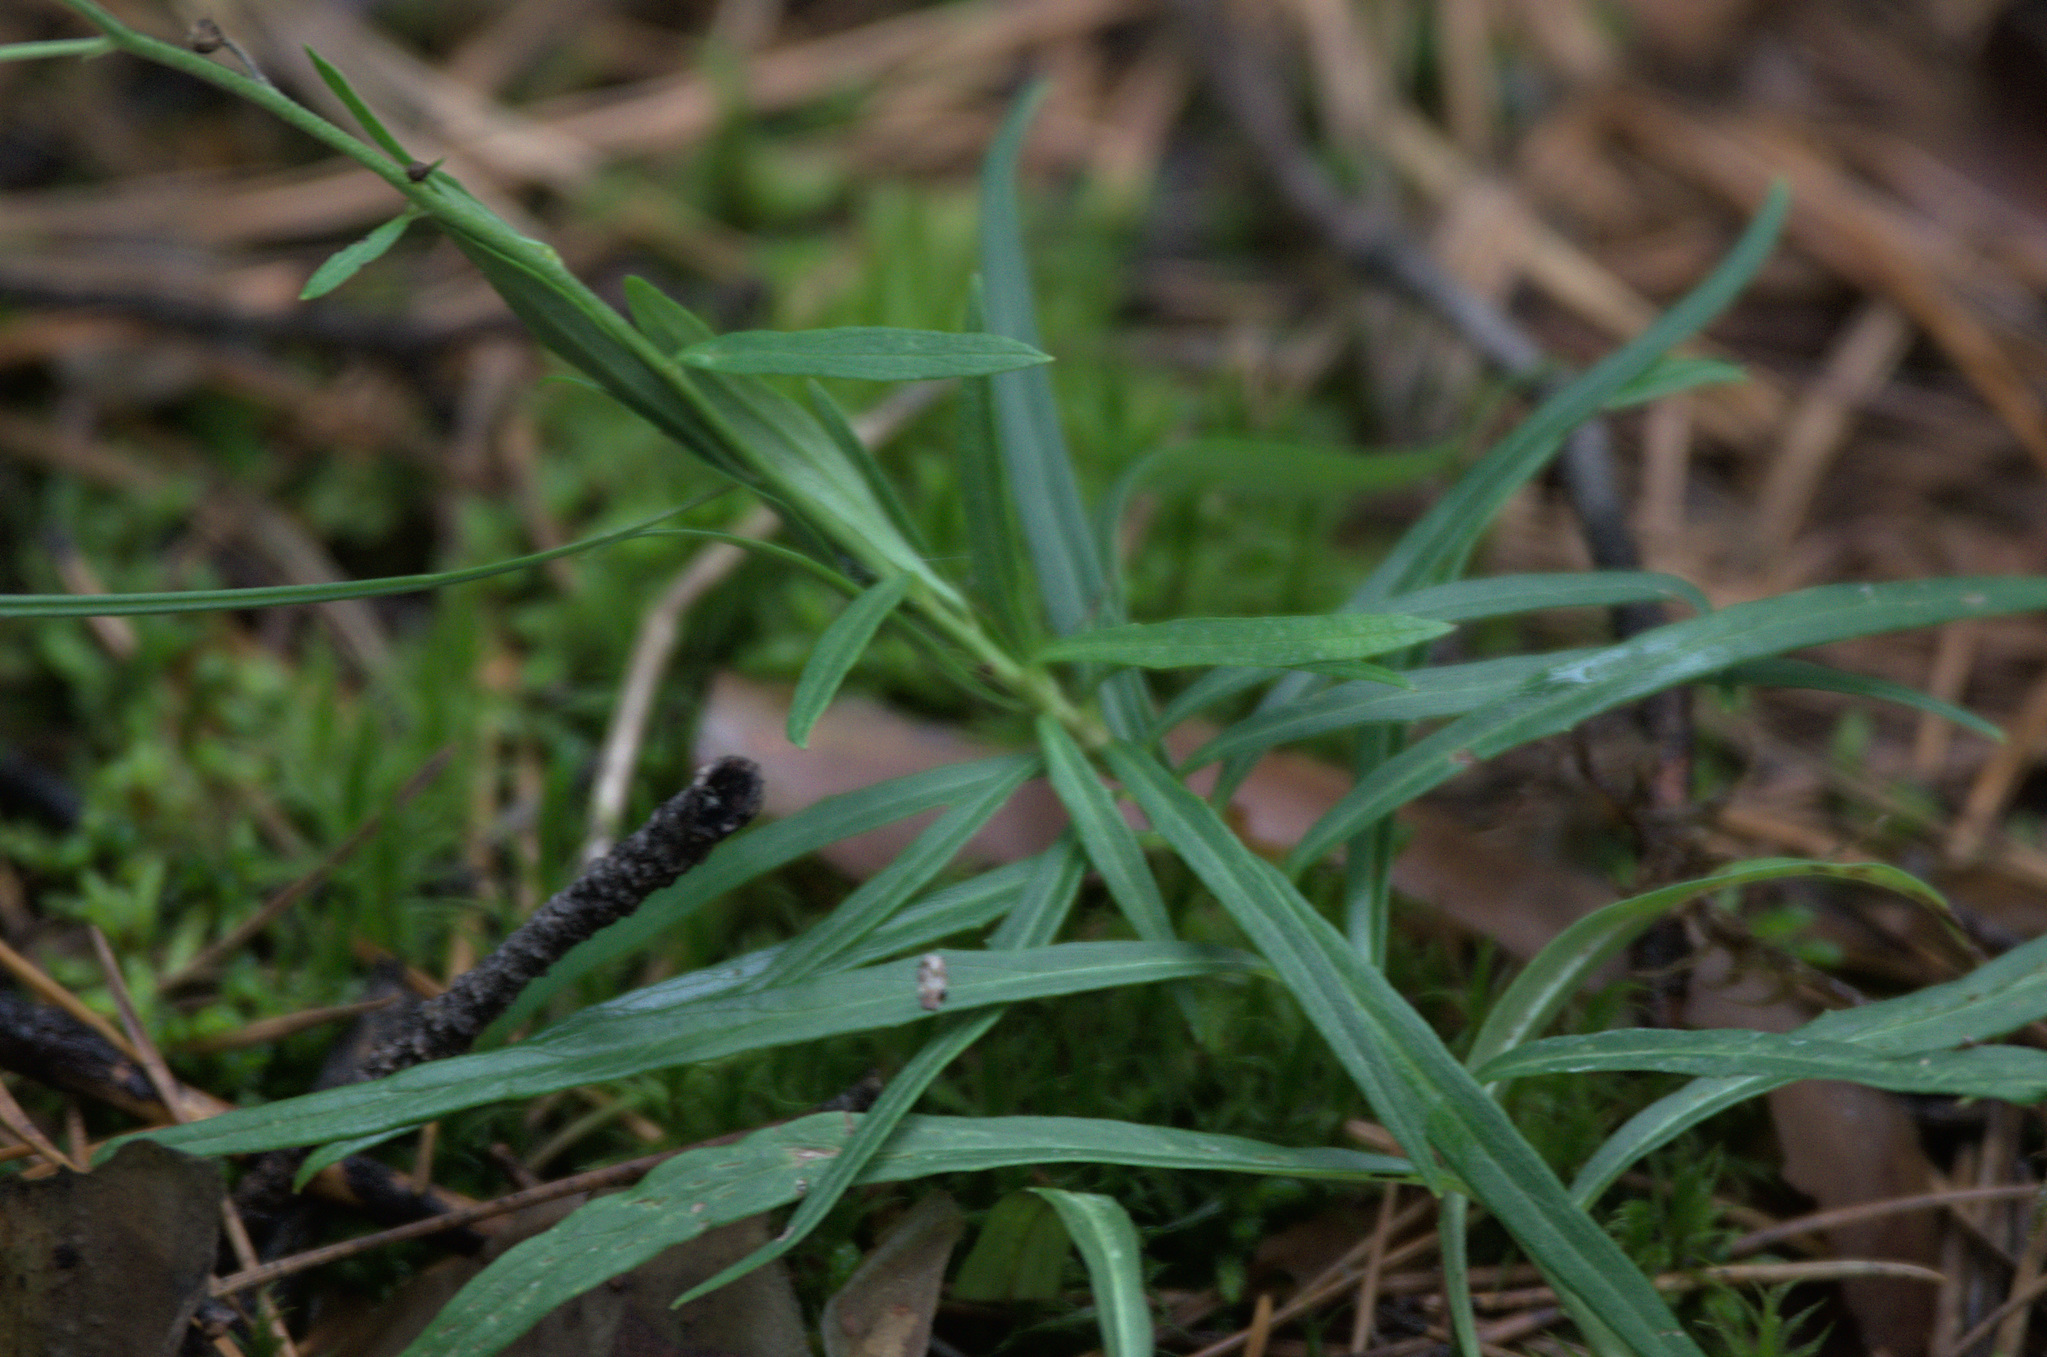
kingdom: Plantae
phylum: Tracheophyta
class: Magnoliopsida
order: Asterales
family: Asteraceae
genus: Hieracium
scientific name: Hieracium umbellatum
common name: Northern hawkweed
